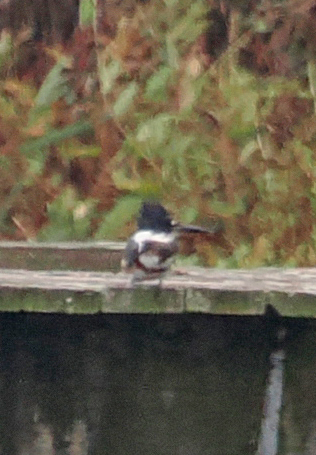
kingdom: Animalia
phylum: Chordata
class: Aves
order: Coraciiformes
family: Alcedinidae
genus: Megaceryle
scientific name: Megaceryle alcyon
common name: Belted kingfisher
